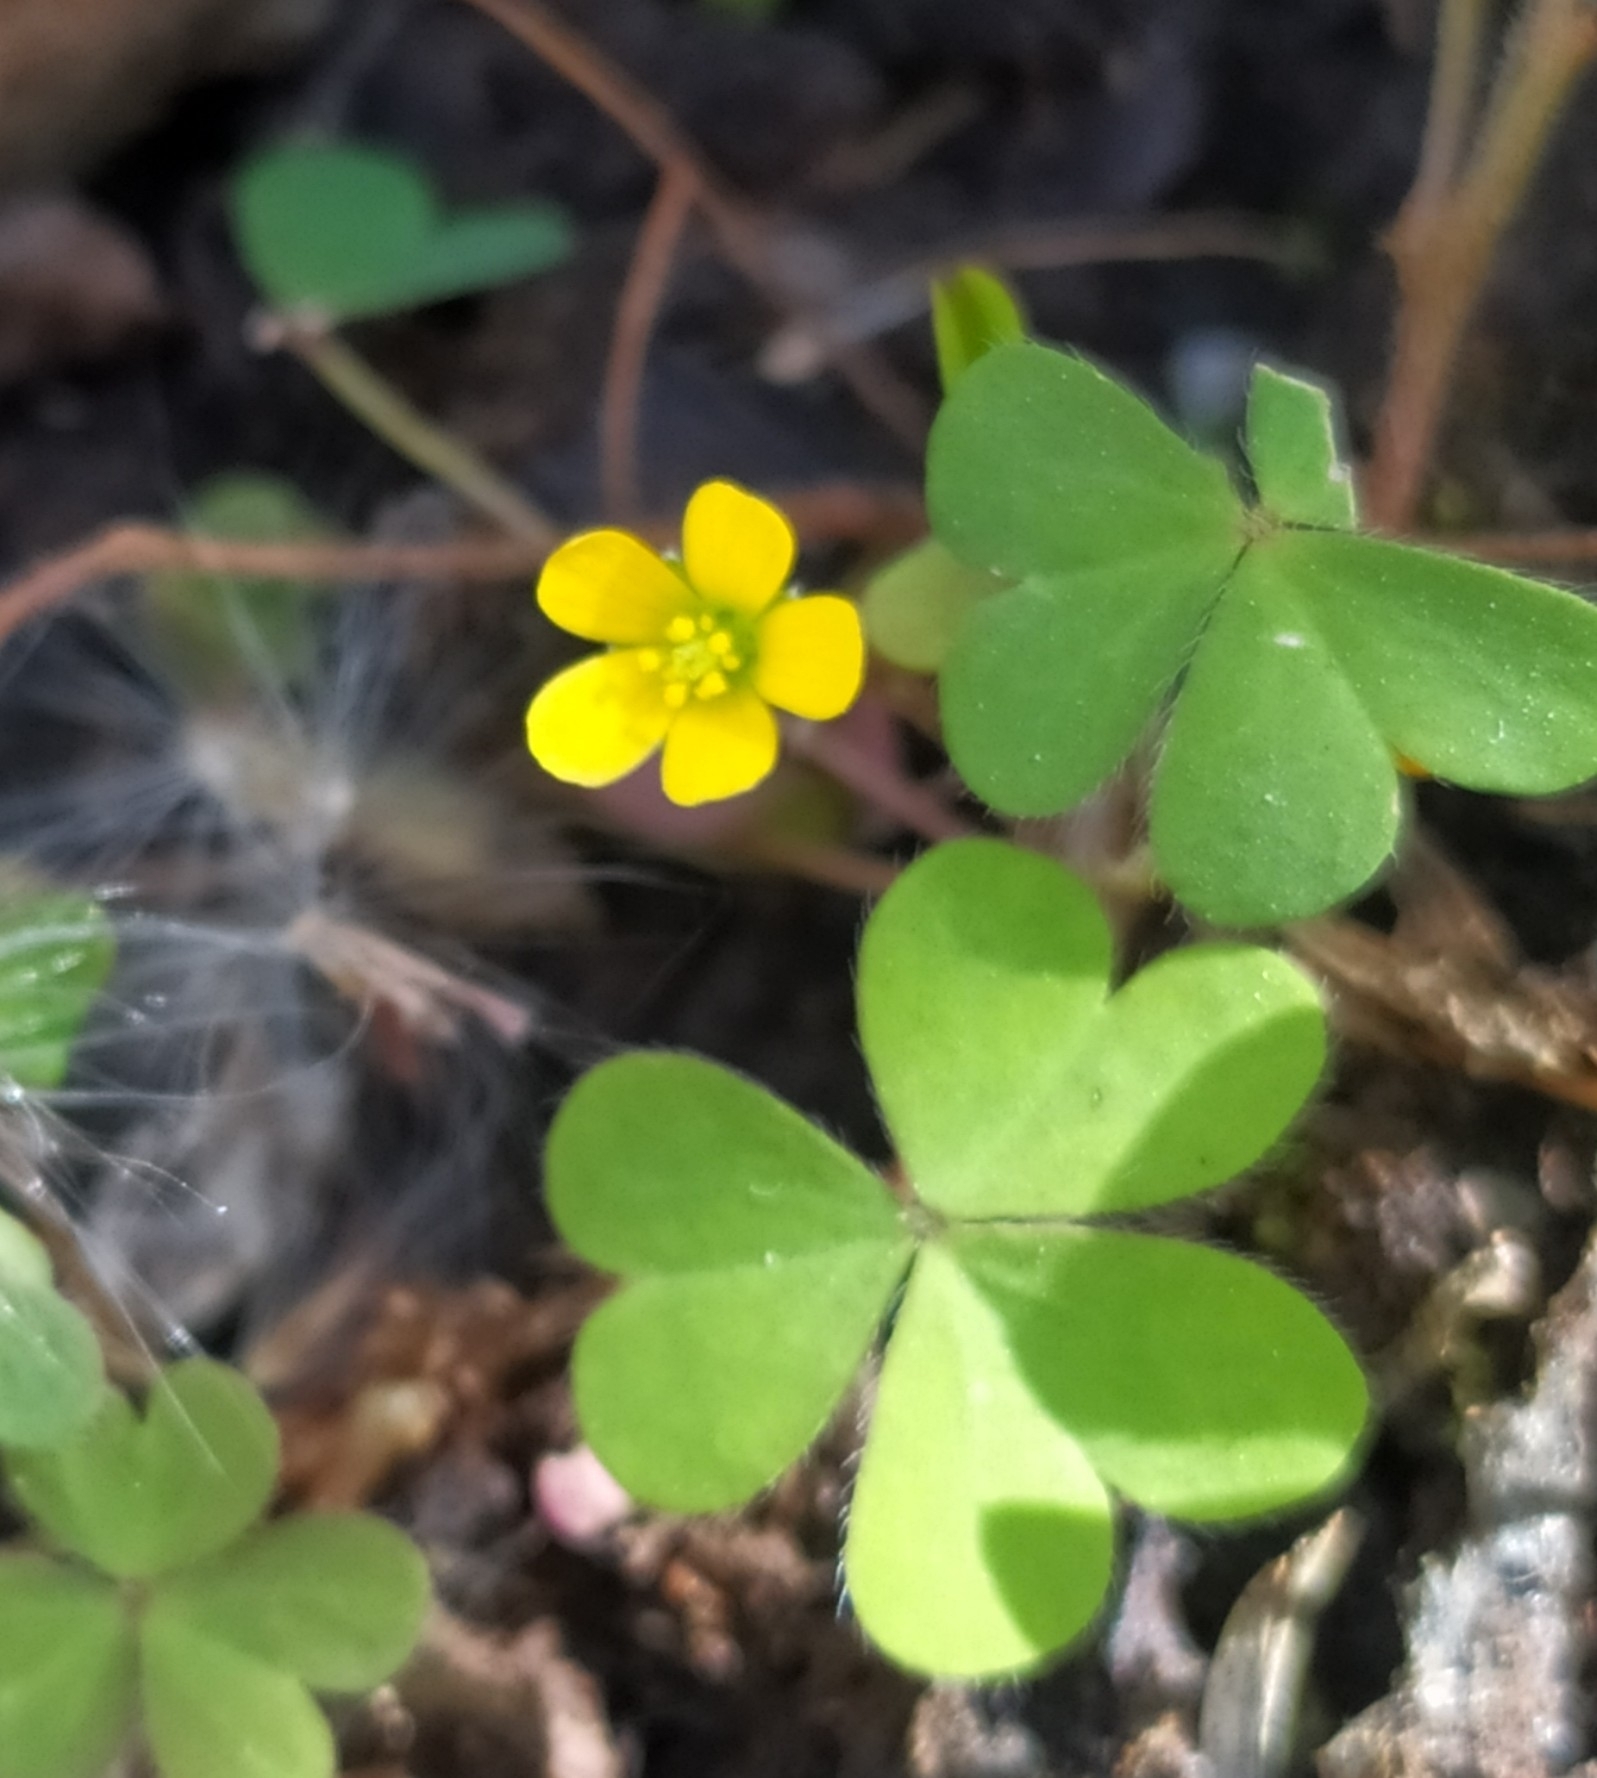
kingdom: Plantae
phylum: Tracheophyta
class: Magnoliopsida
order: Oxalidales
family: Oxalidaceae
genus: Oxalis
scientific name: Oxalis corniculata
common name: Procumbent yellow-sorrel
